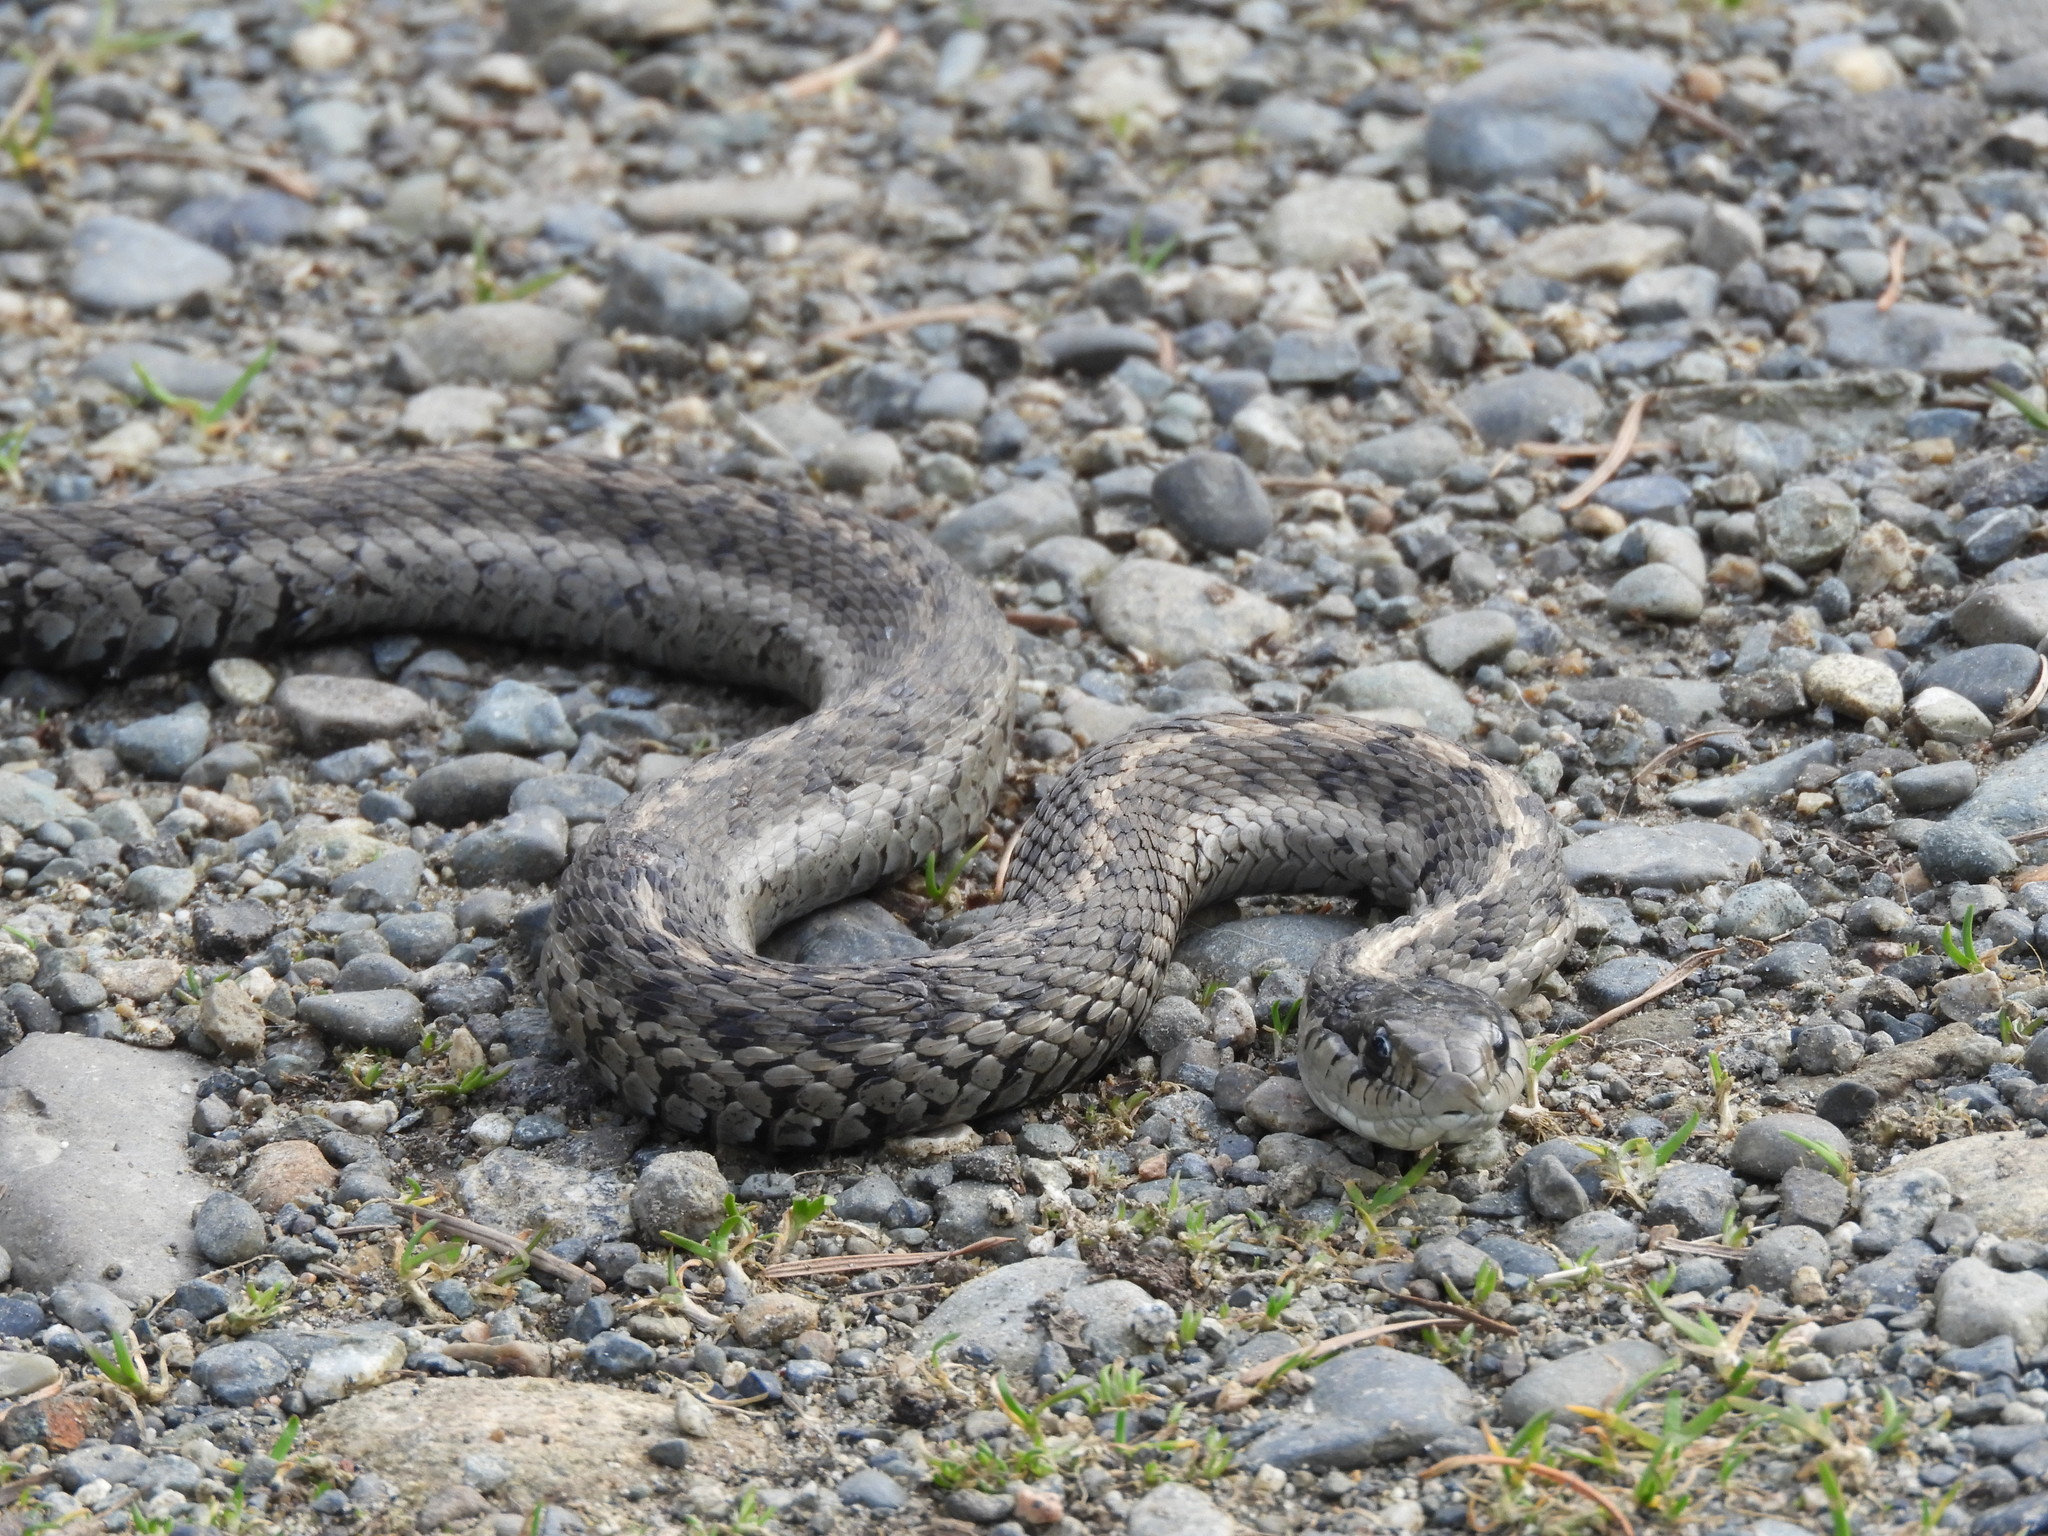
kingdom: Animalia
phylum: Chordata
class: Squamata
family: Colubridae
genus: Thamnophis
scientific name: Thamnophis elegans
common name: Western terrestrial garter snake
